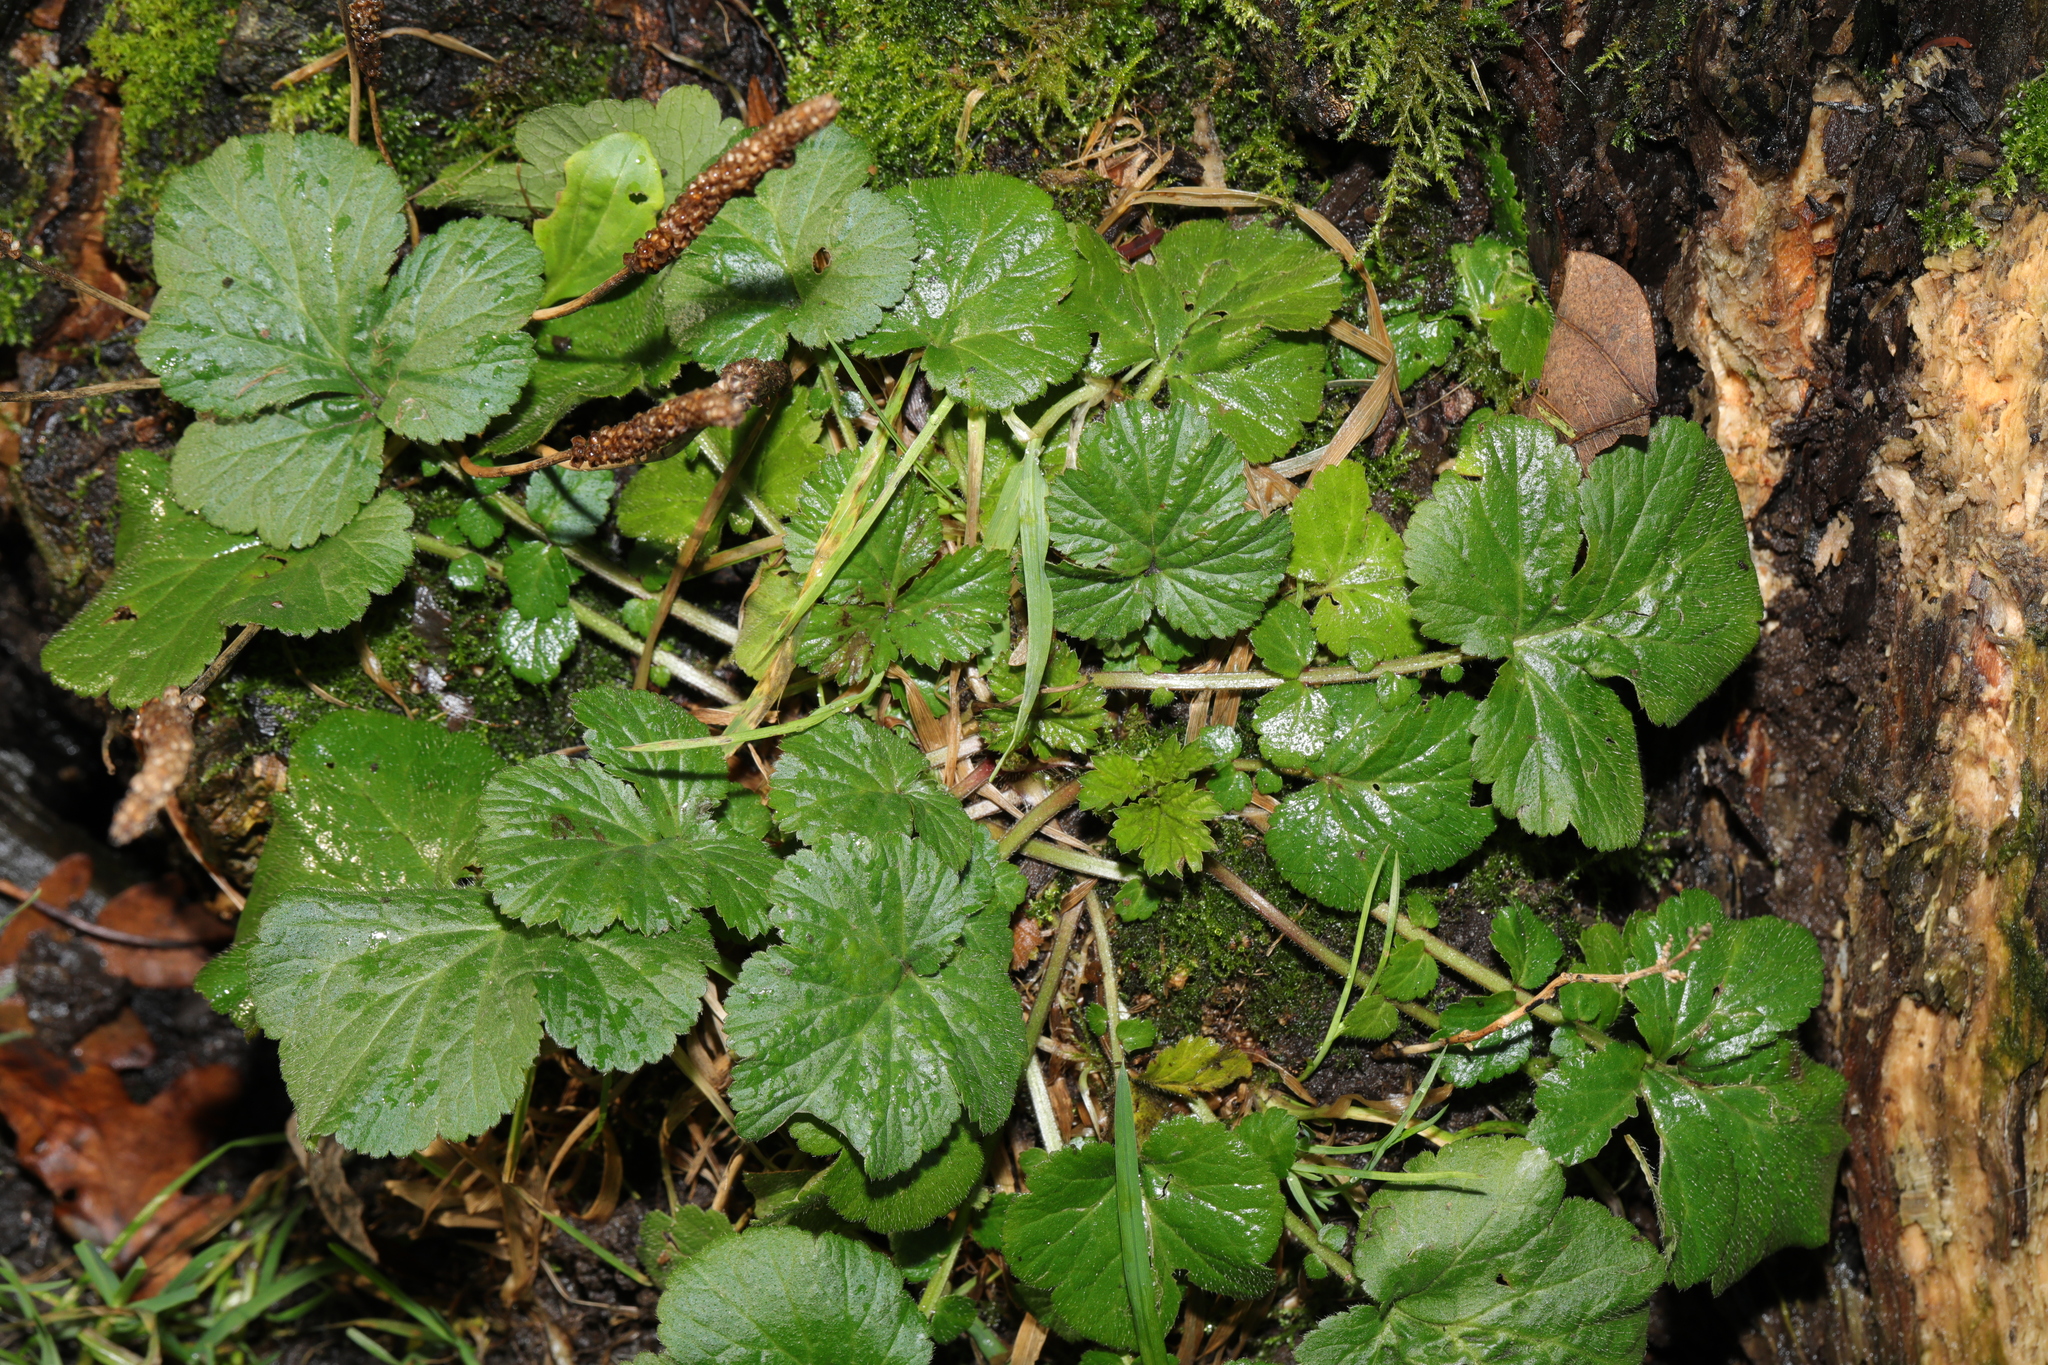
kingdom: Plantae
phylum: Tracheophyta
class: Magnoliopsida
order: Rosales
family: Rosaceae
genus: Geum
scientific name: Geum urbanum
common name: Wood avens
